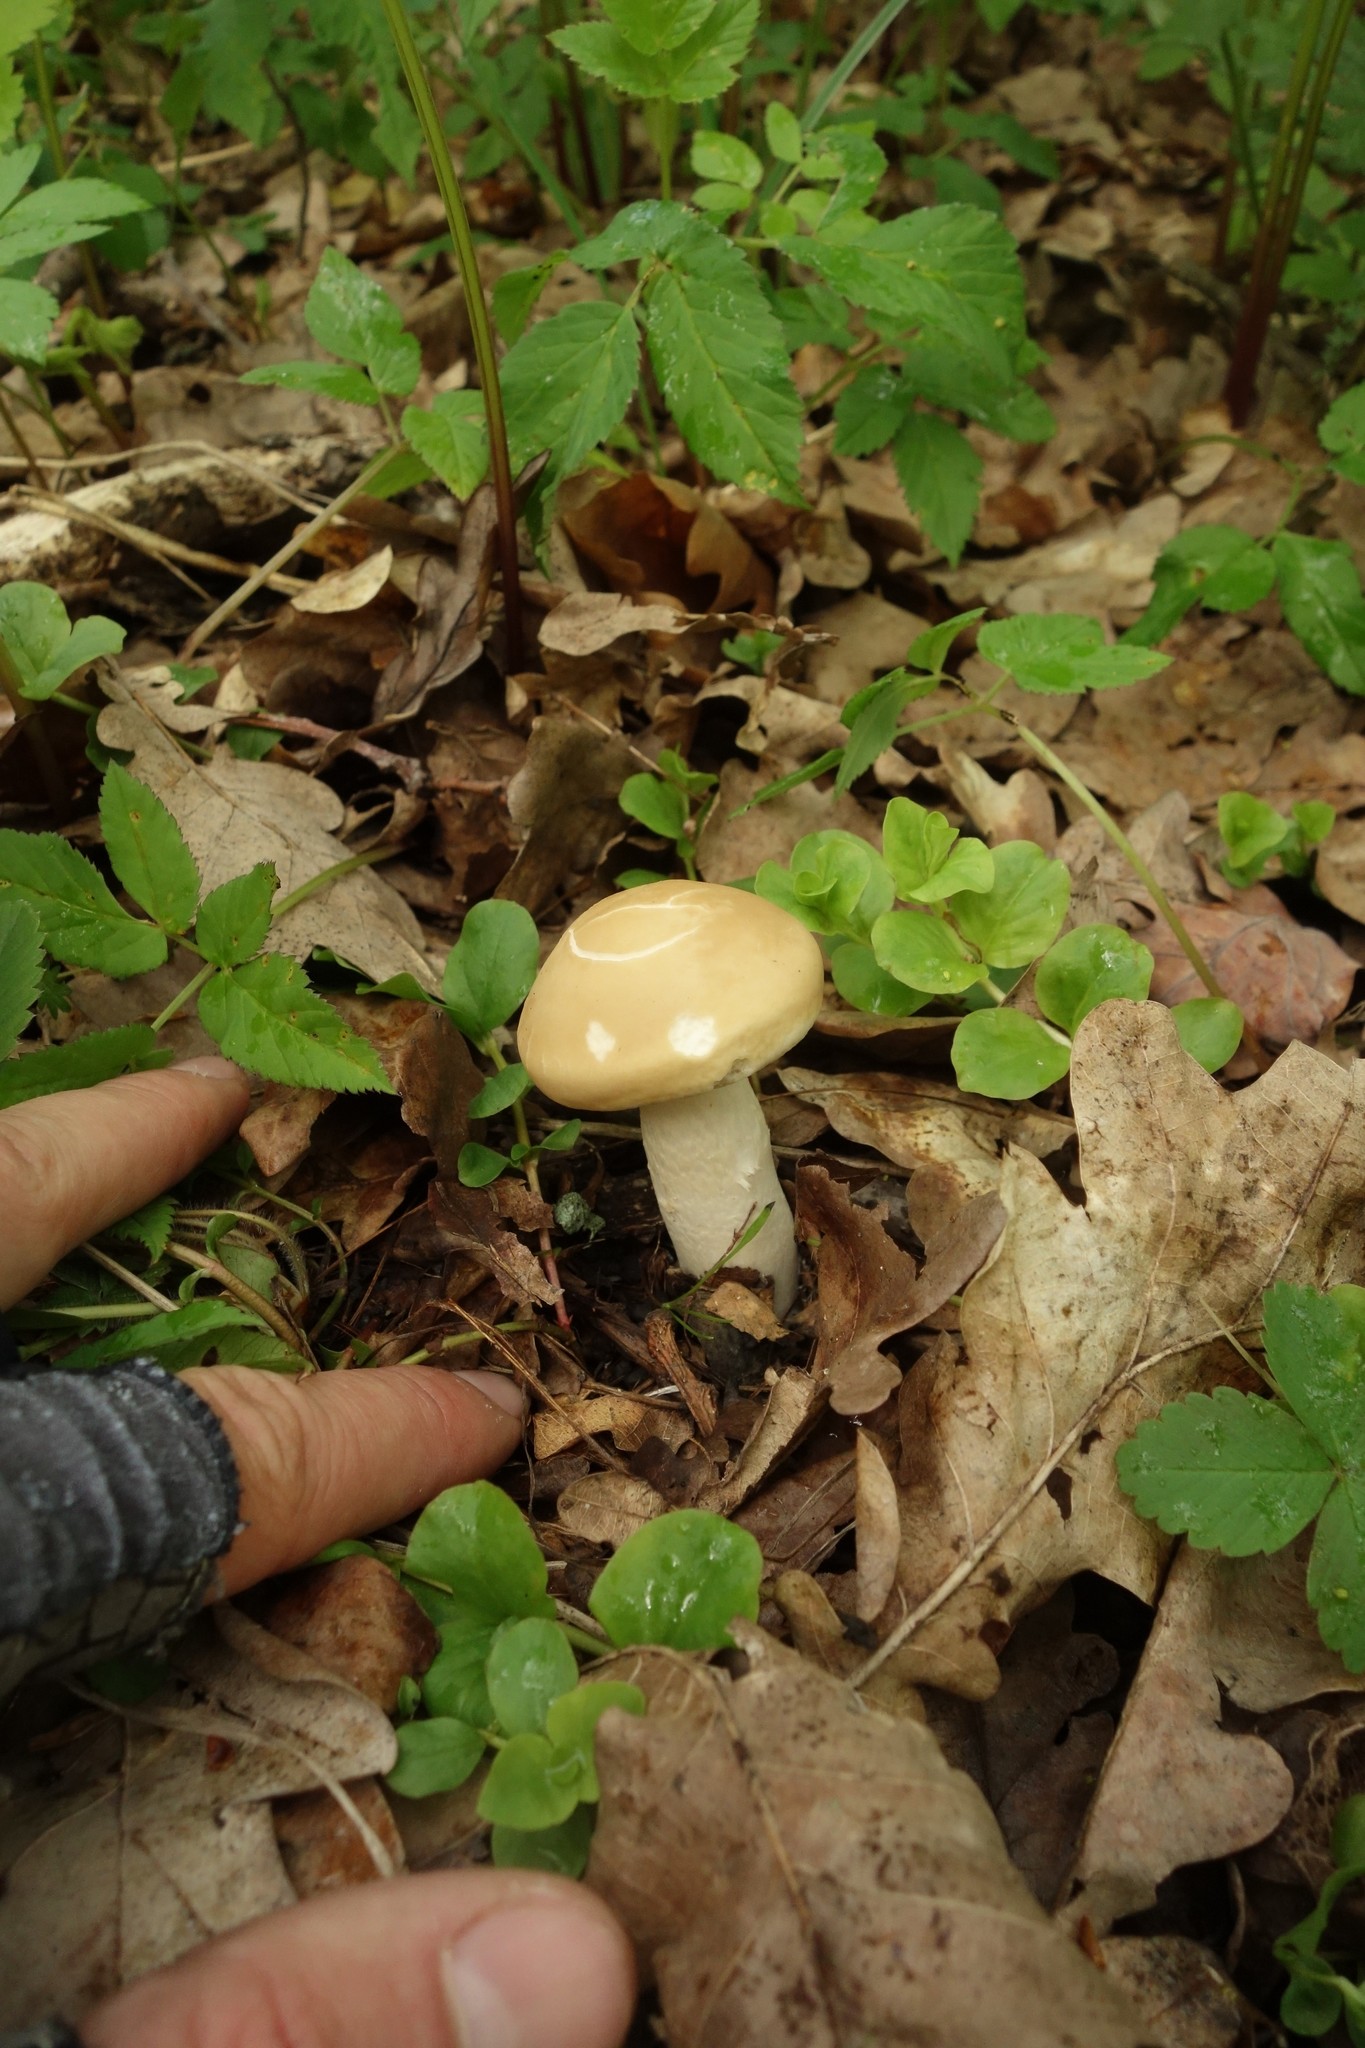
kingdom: Fungi
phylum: Basidiomycota
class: Agaricomycetes
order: Agaricales
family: Strophariaceae
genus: Agrocybe
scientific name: Agrocybe praecox
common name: Spring fieldcap
